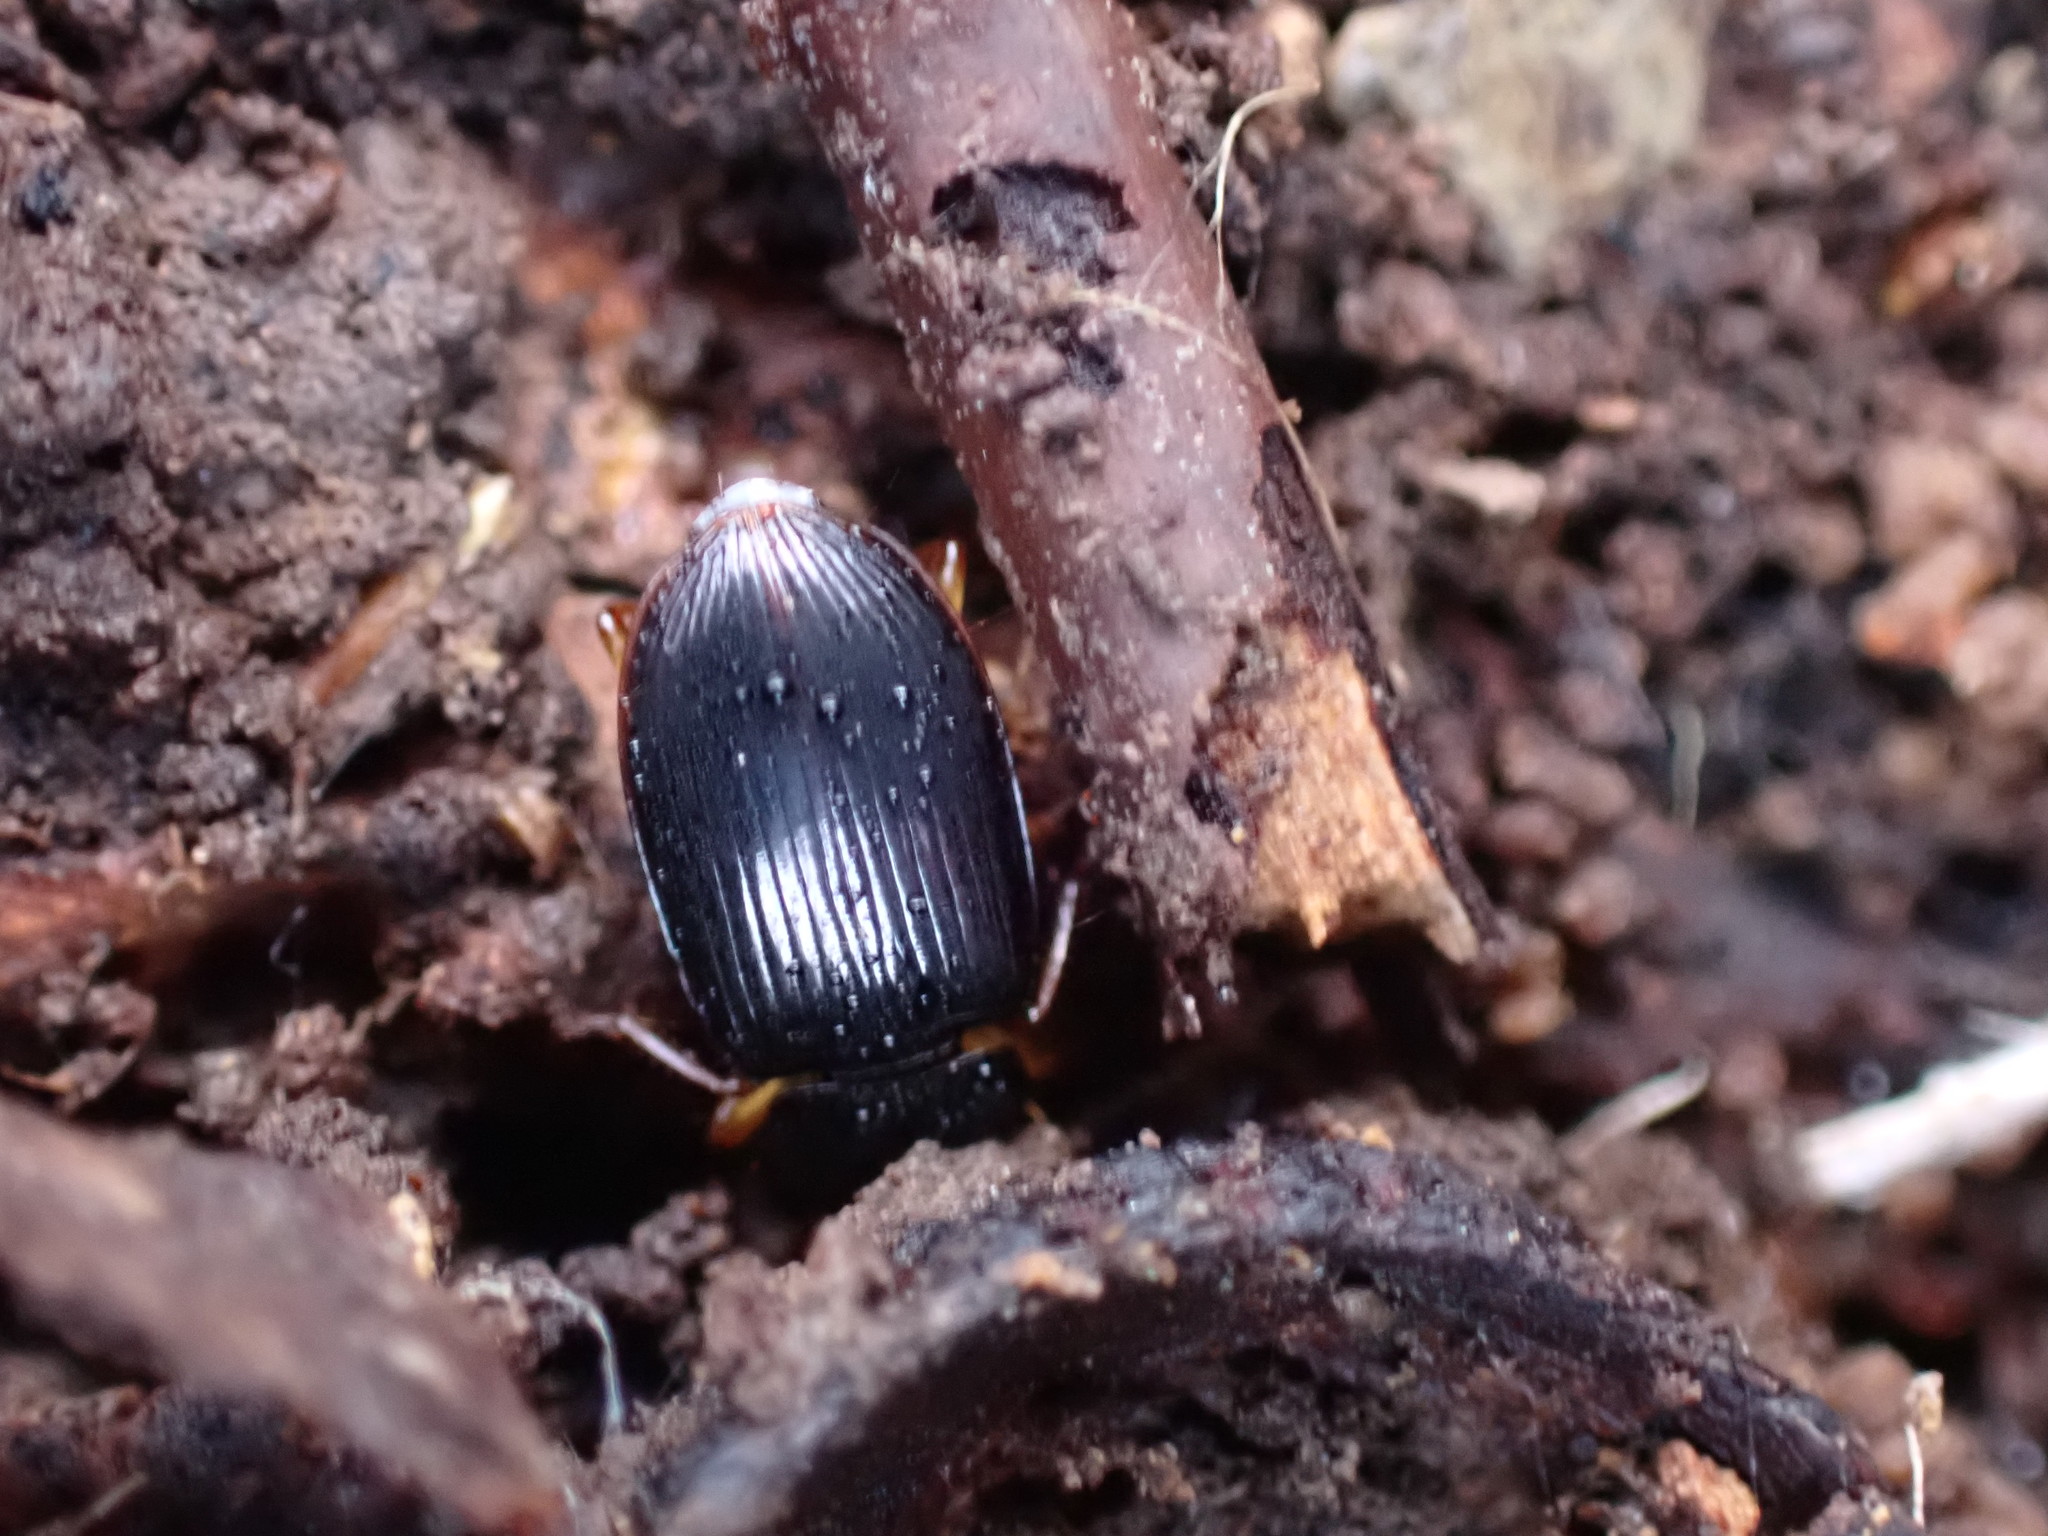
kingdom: Animalia
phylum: Arthropoda
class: Insecta
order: Coleoptera
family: Carabidae
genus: Trichotichnus
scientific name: Trichotichnus autumnalis
